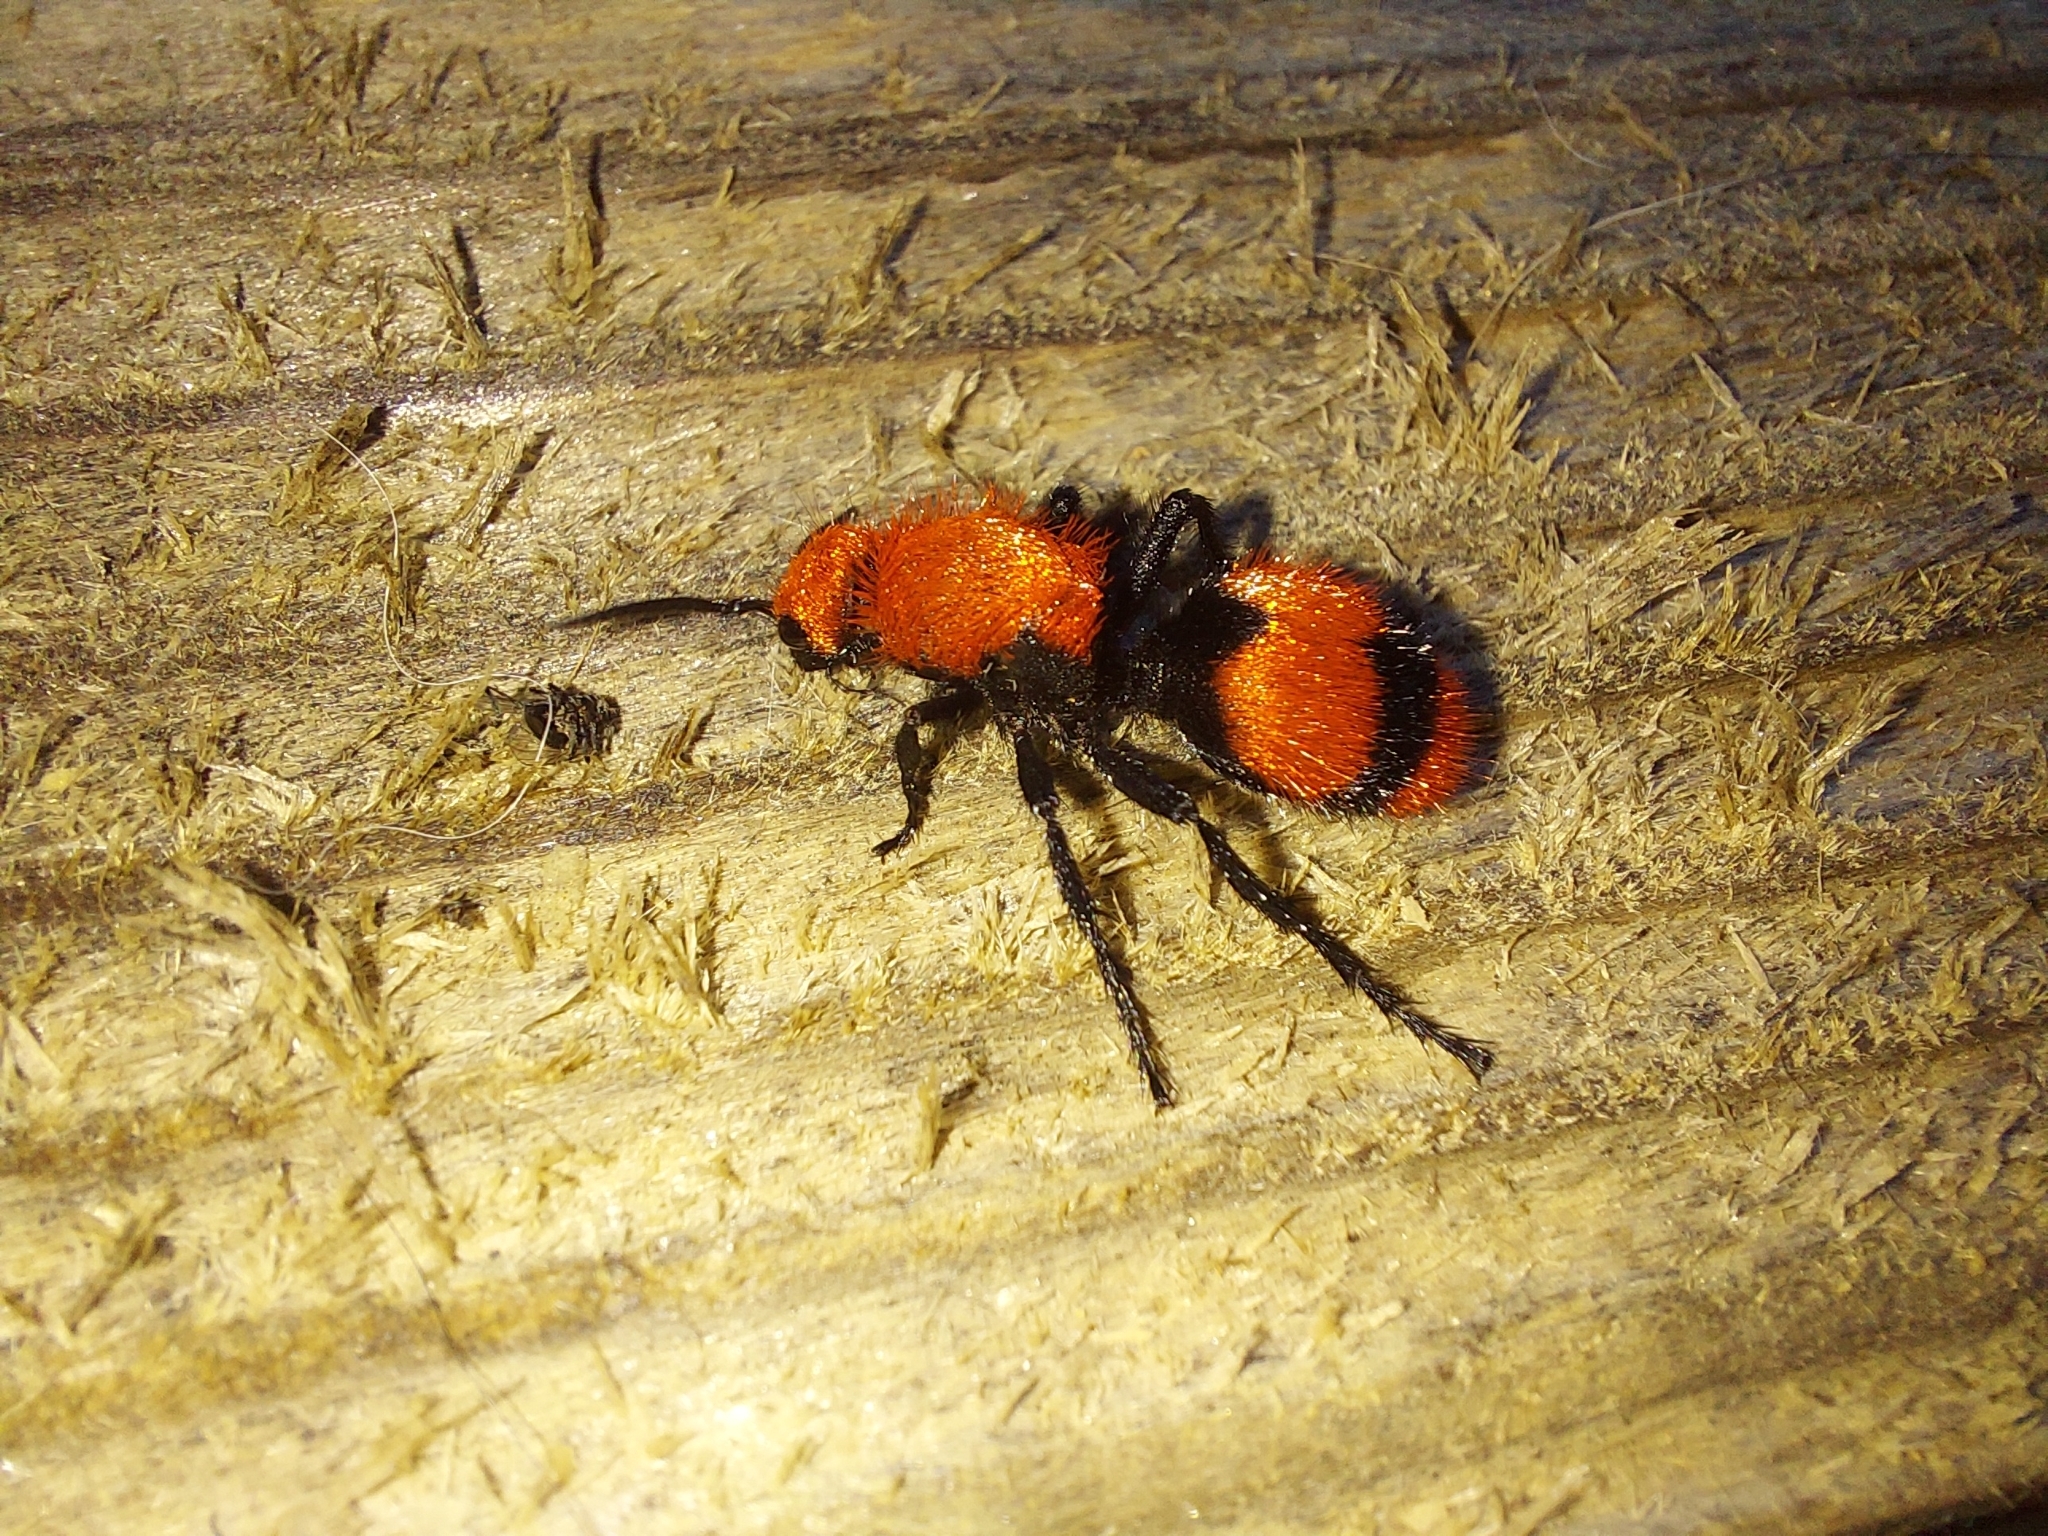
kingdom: Animalia
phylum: Arthropoda
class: Insecta
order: Hymenoptera
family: Mutillidae
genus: Dasymutilla
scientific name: Dasymutilla occidentalis
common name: Common eastern velvet ant
